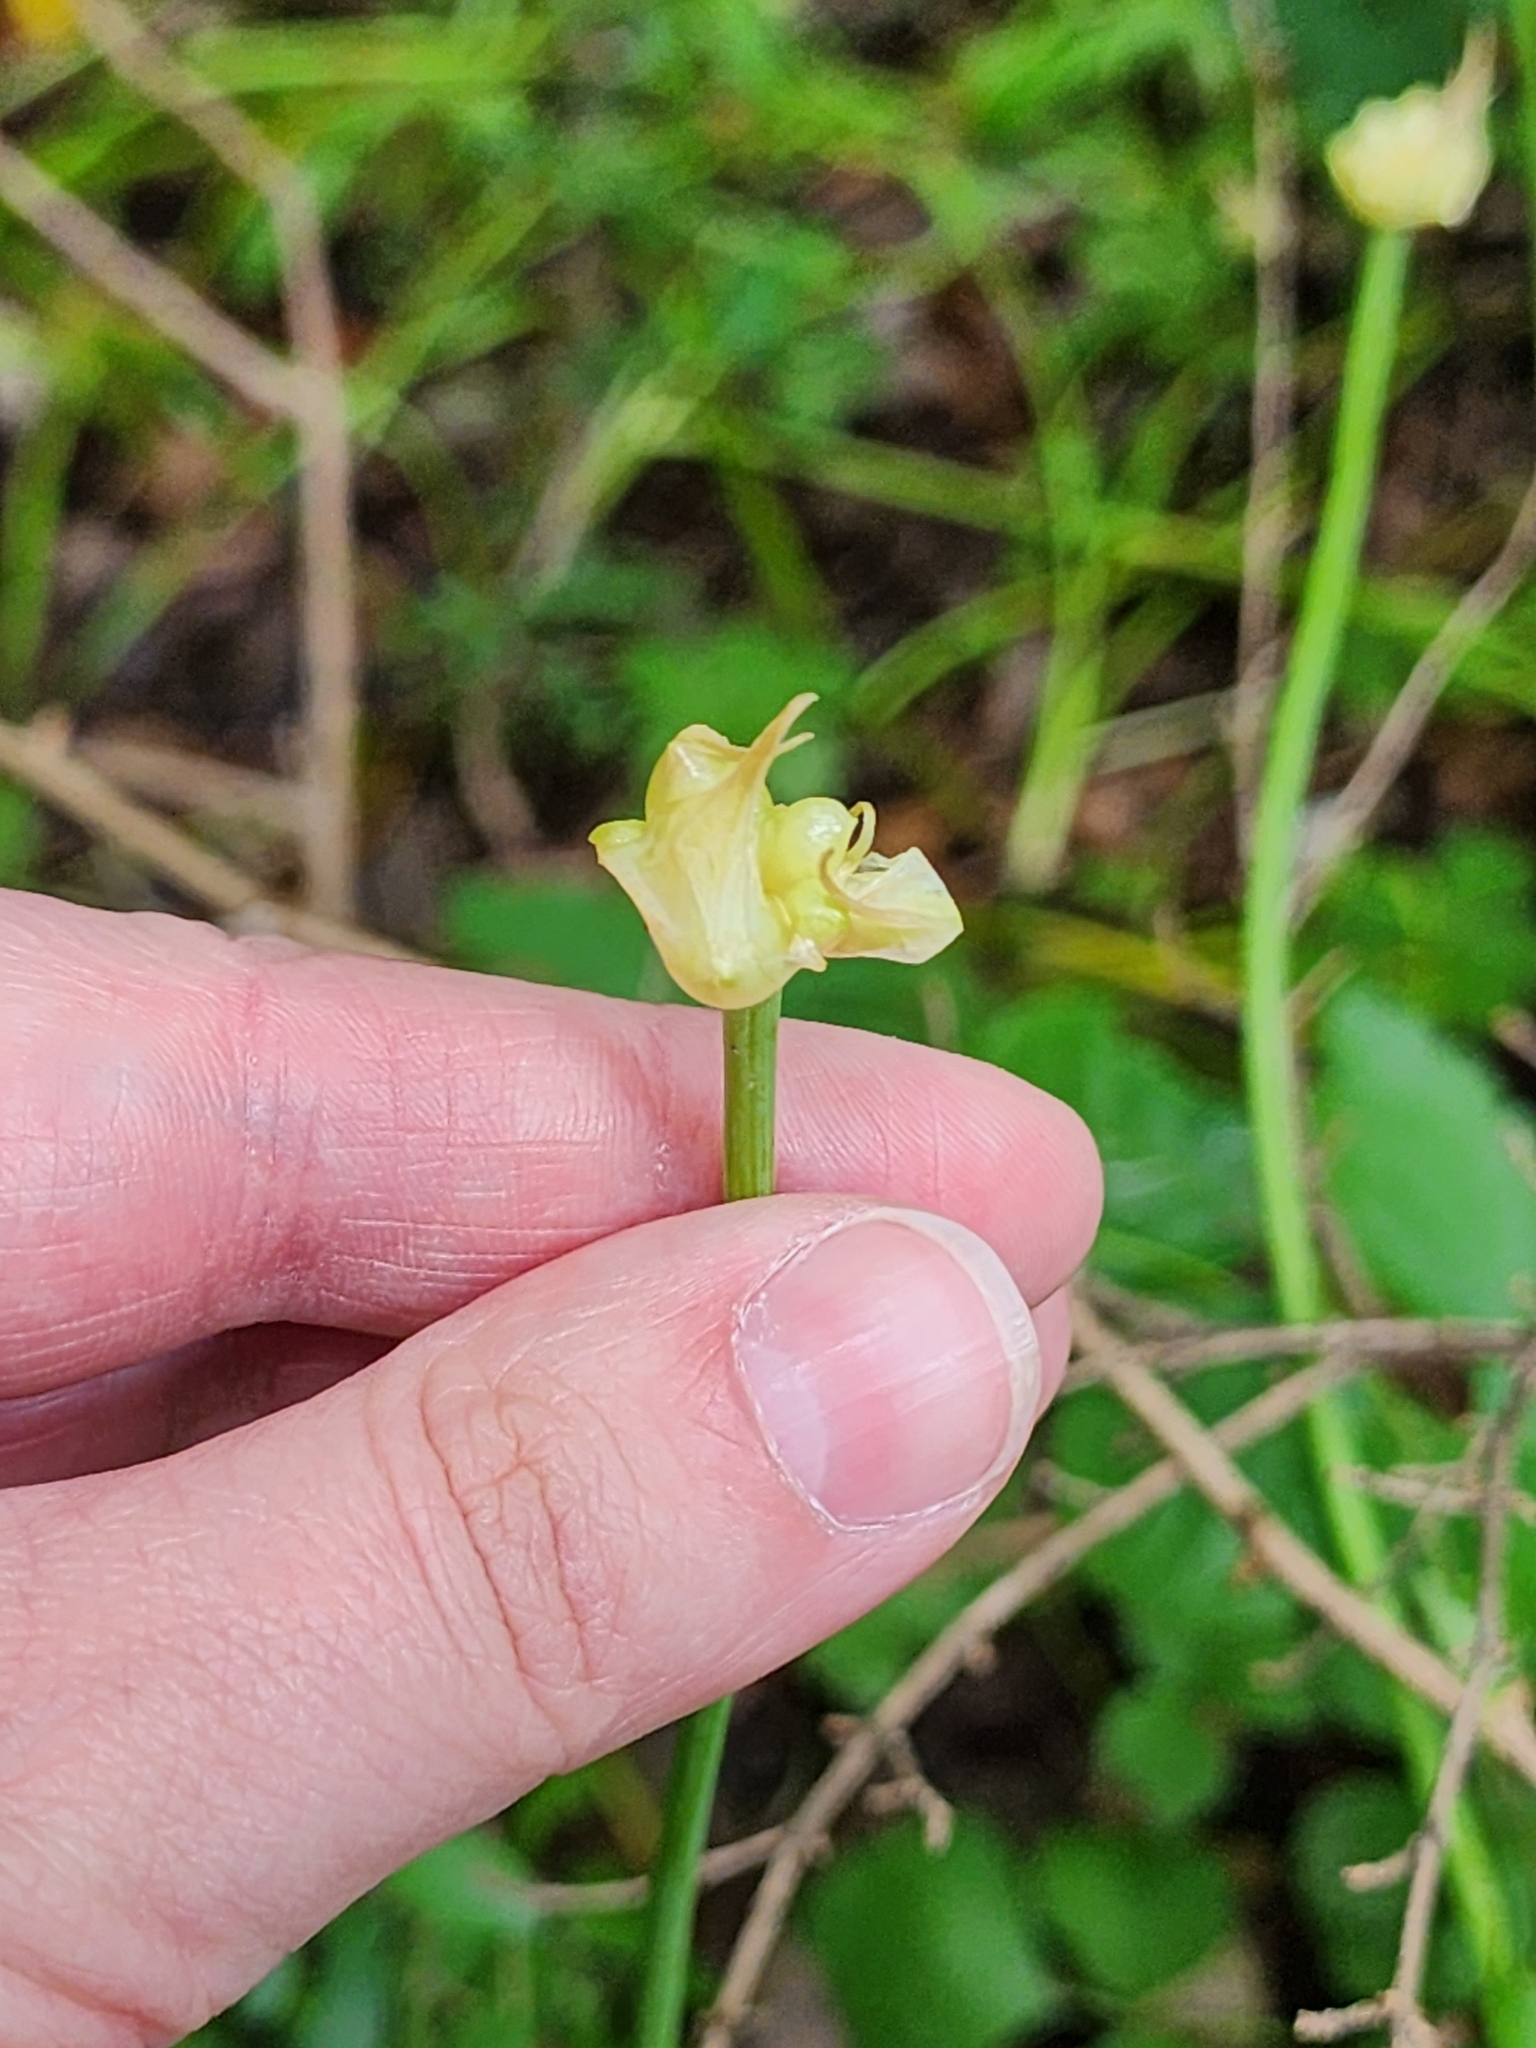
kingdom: Plantae
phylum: Tracheophyta
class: Liliopsida
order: Asparagales
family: Amaryllidaceae
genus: Allium
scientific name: Allium canadense
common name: Meadow garlic
